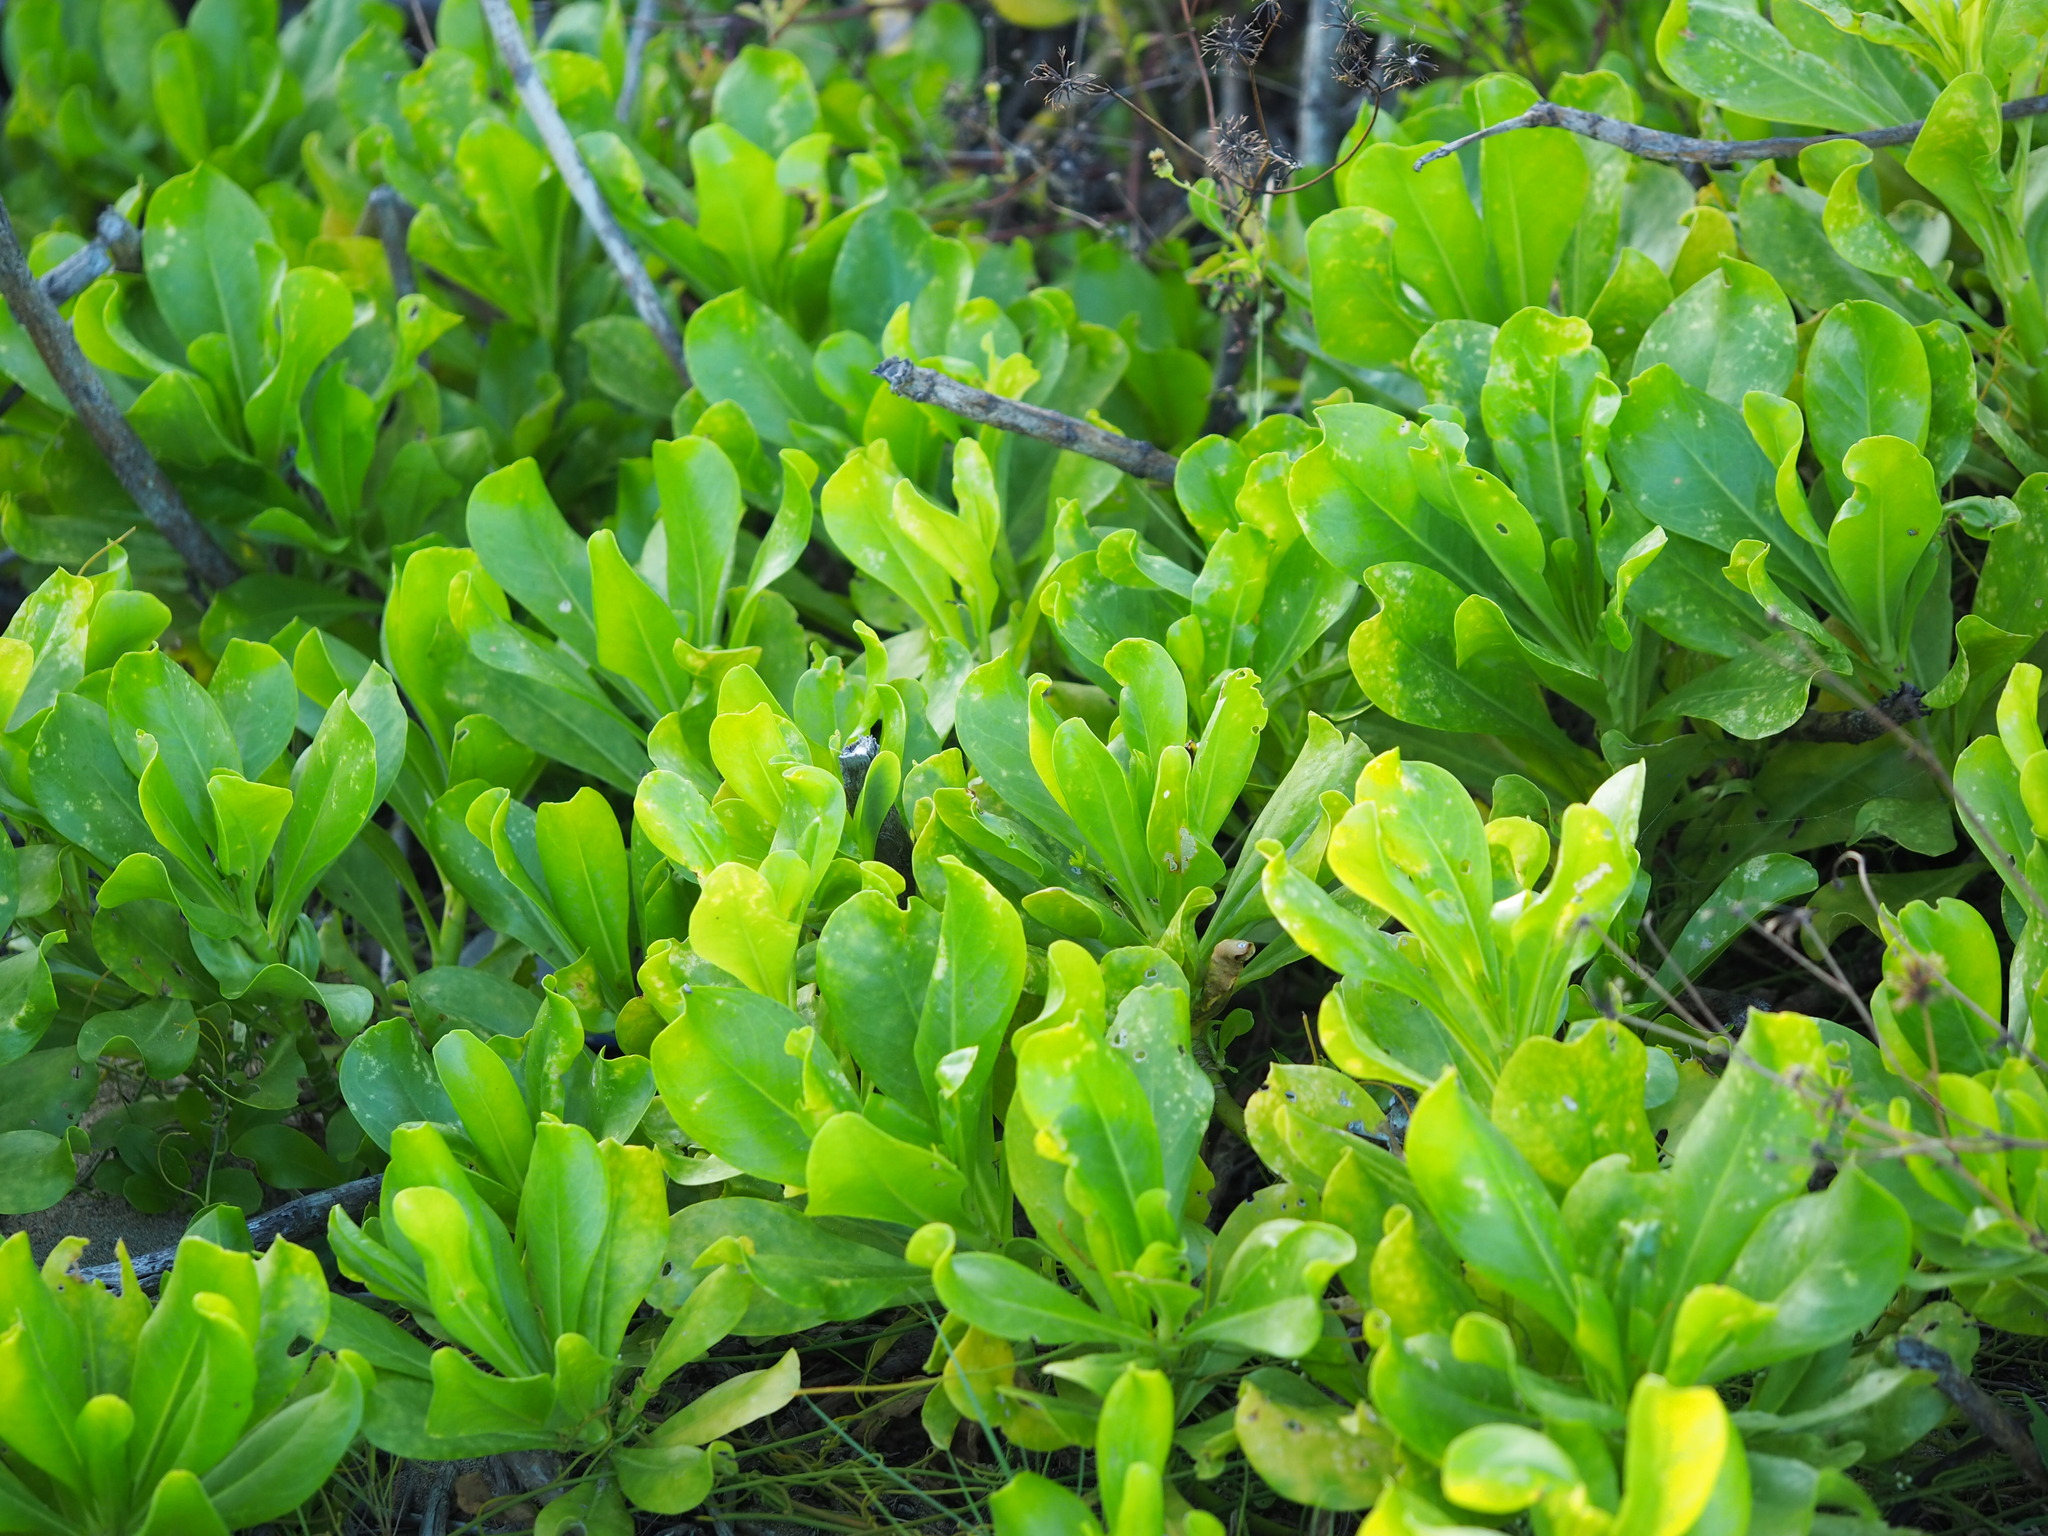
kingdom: Plantae
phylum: Tracheophyta
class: Magnoliopsida
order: Asterales
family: Goodeniaceae
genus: Scaevola
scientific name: Scaevola taccada
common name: Sea lettucetree
